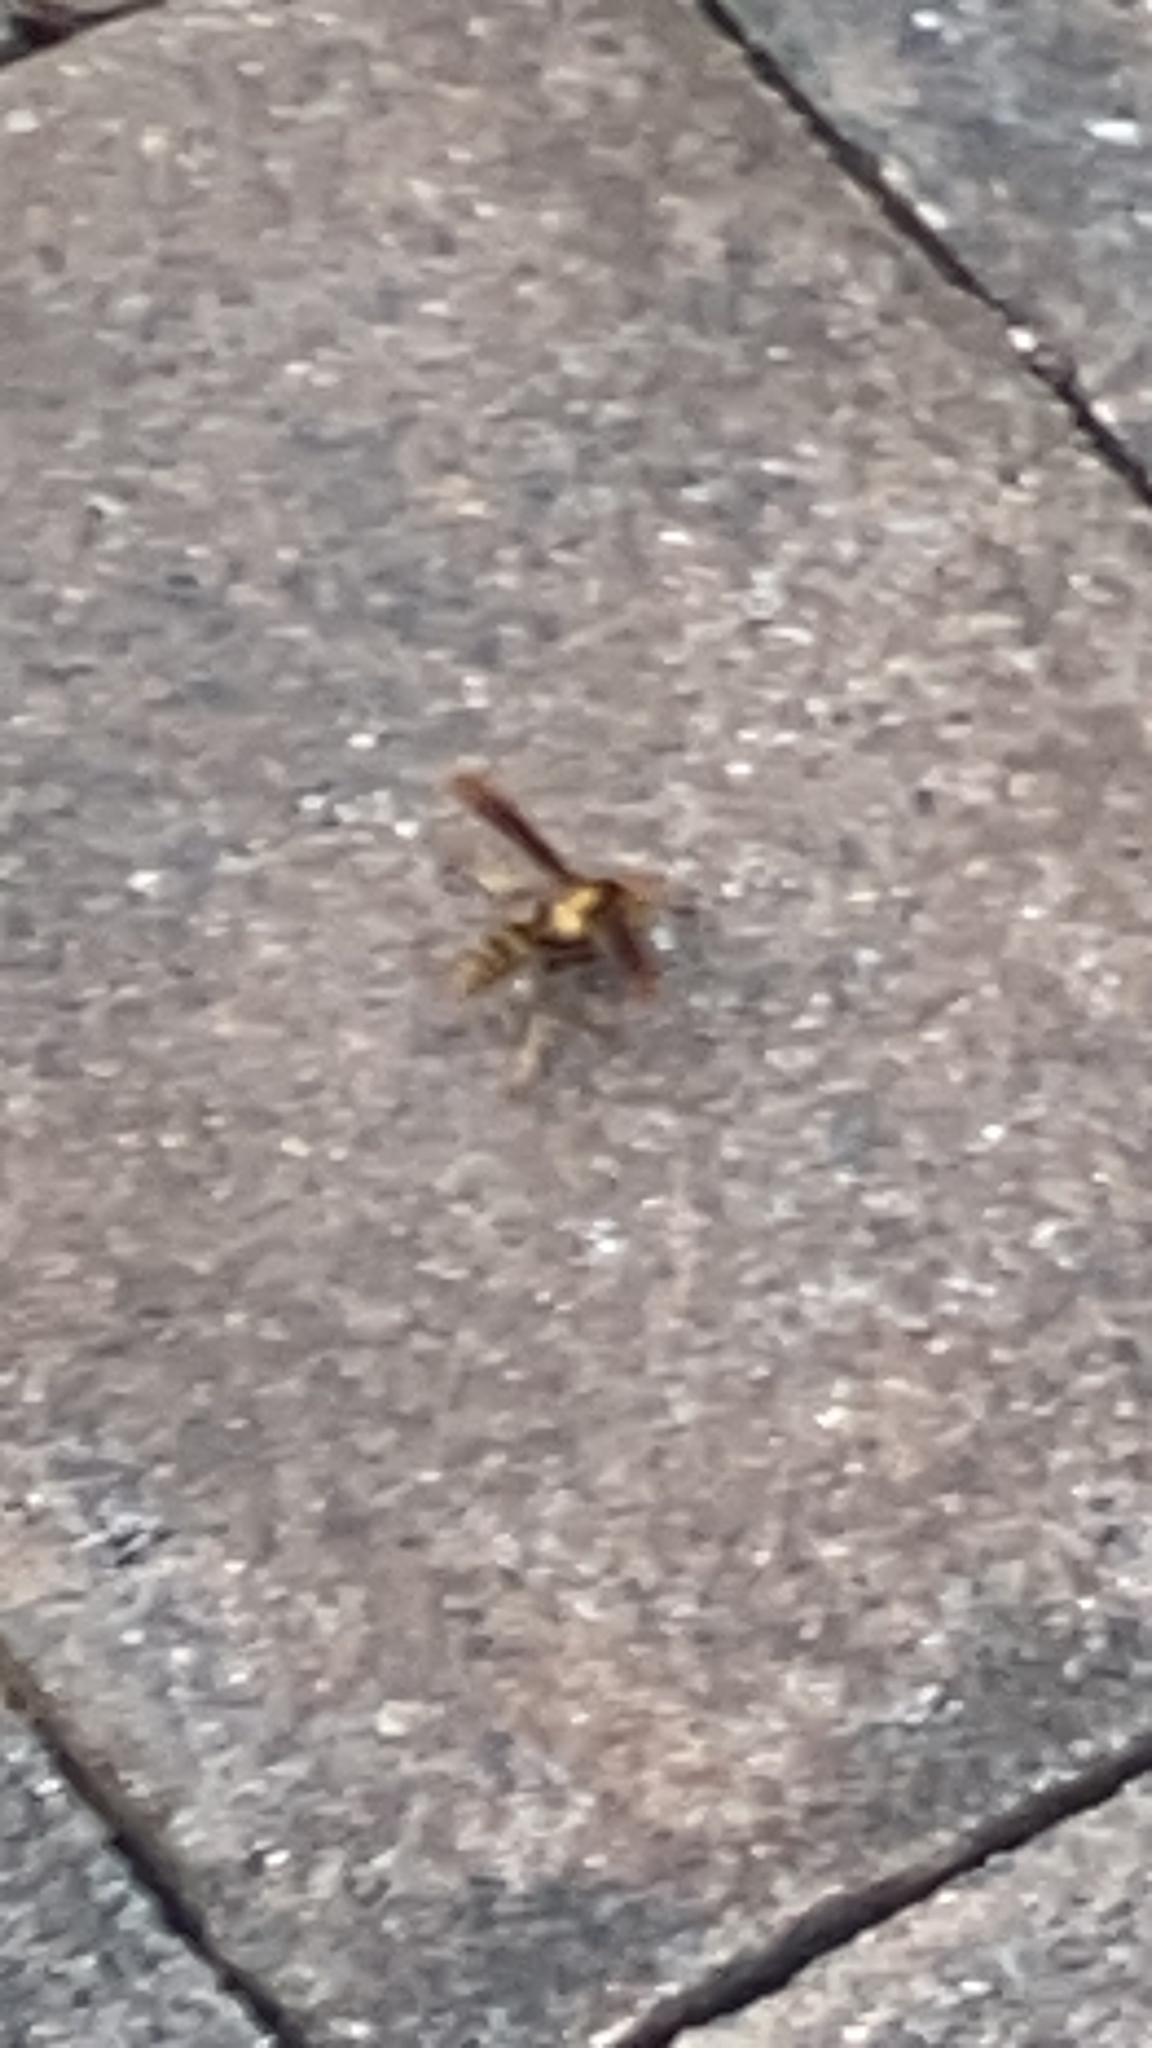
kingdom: Animalia
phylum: Arthropoda
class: Insecta
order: Hymenoptera
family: Eumenidae
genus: Polistes
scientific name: Polistes major
